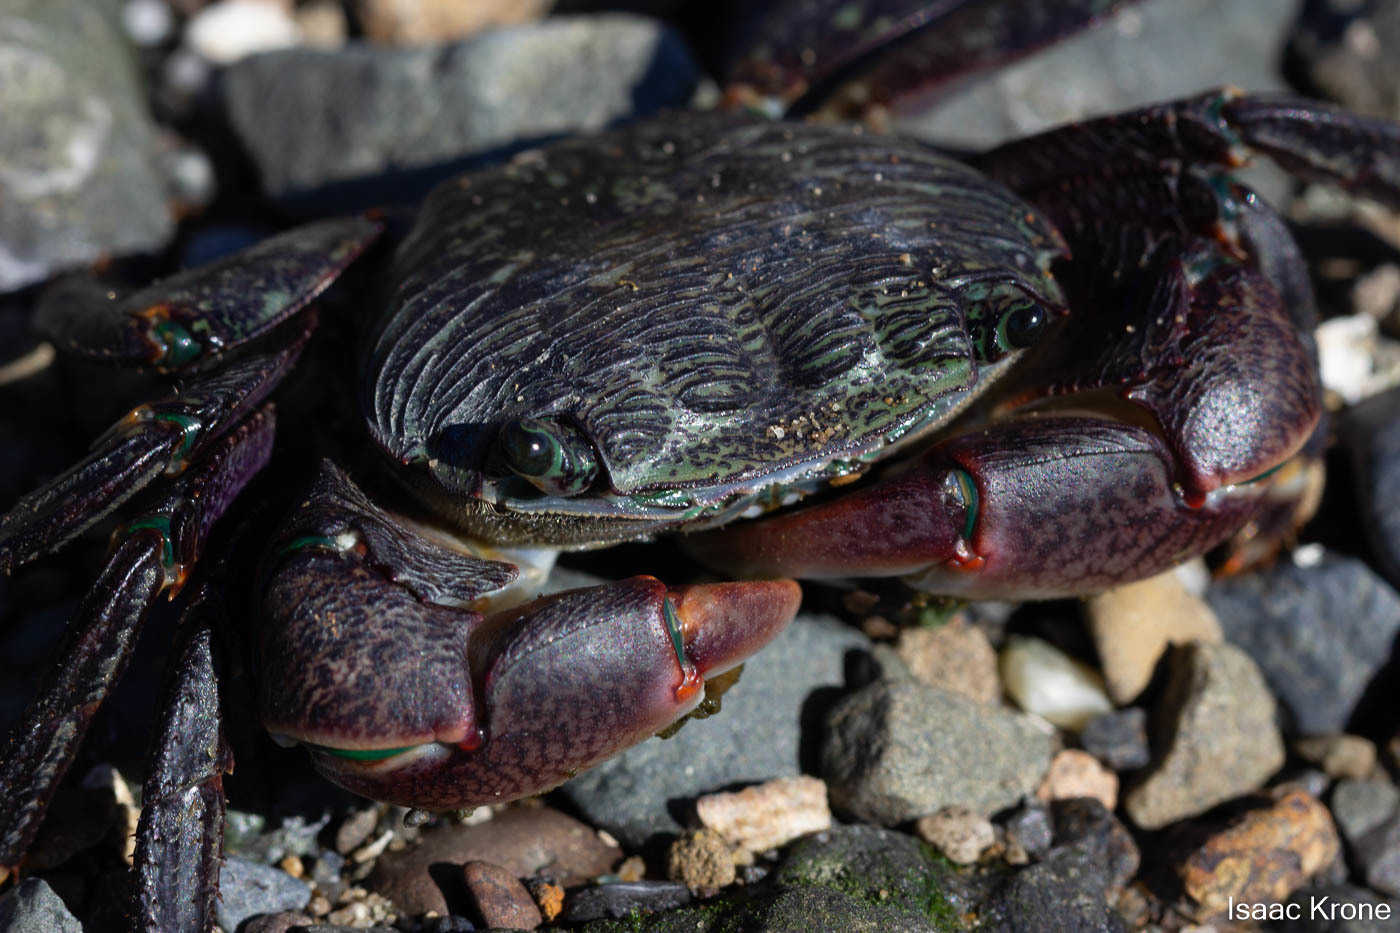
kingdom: Animalia
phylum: Arthropoda
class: Malacostraca
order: Decapoda
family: Grapsidae
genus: Pachygrapsus
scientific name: Pachygrapsus crassipes
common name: Striped shore crab
